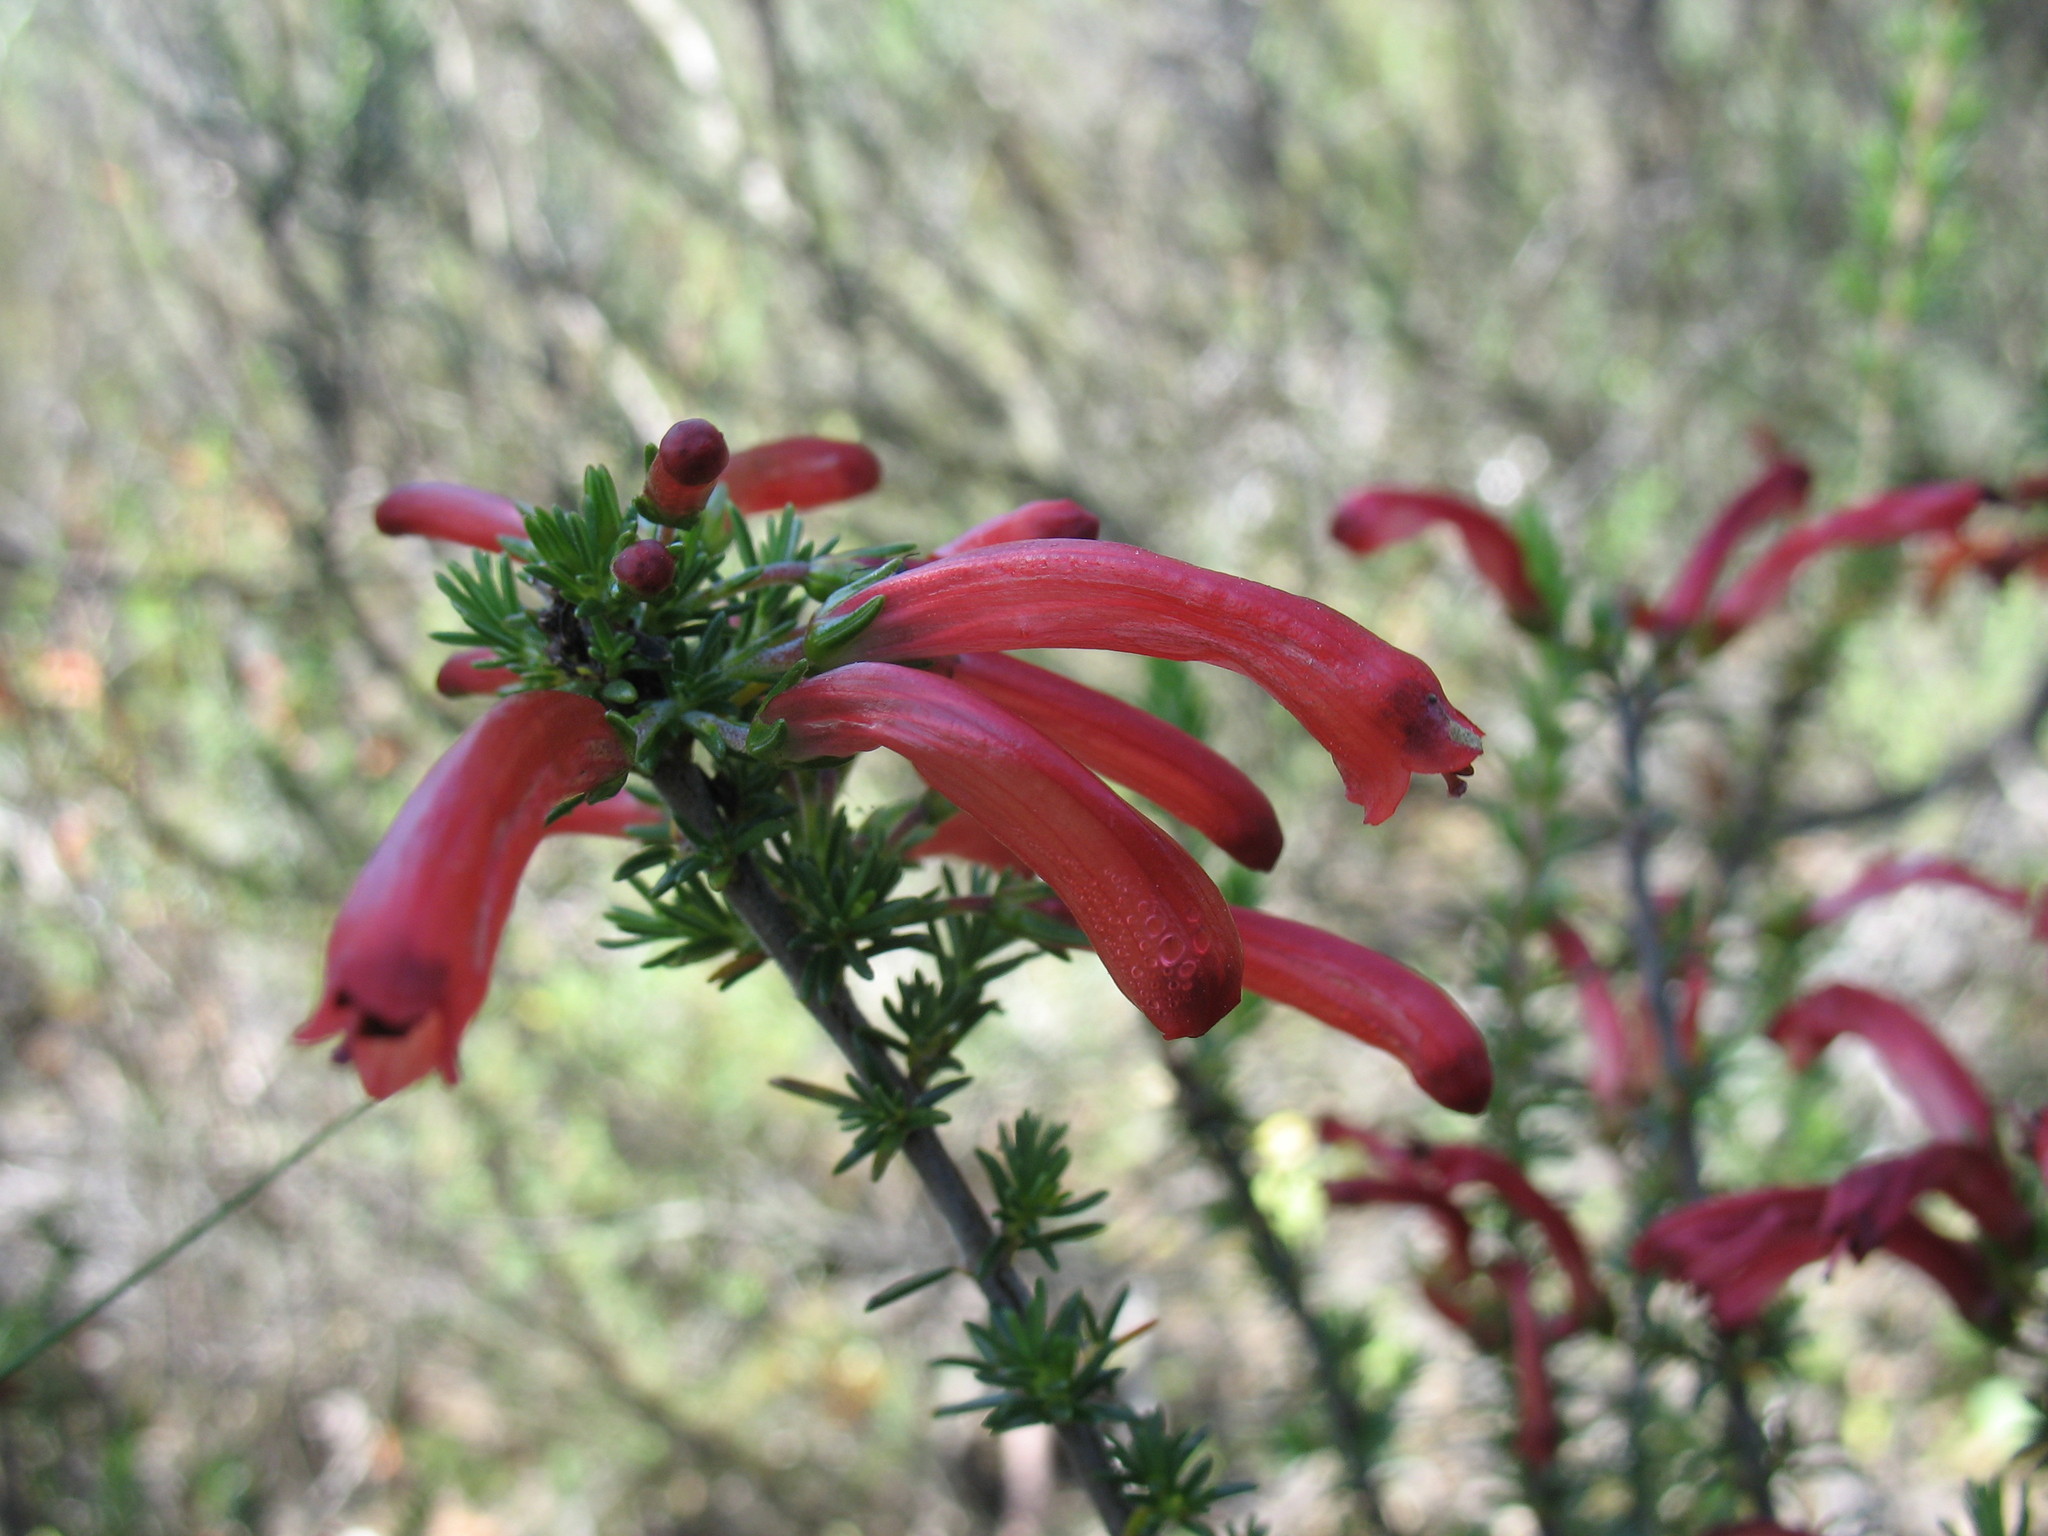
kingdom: Plantae
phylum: Tracheophyta
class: Magnoliopsida
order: Ericales
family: Ericaceae
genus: Erica
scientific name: Erica cruenta
